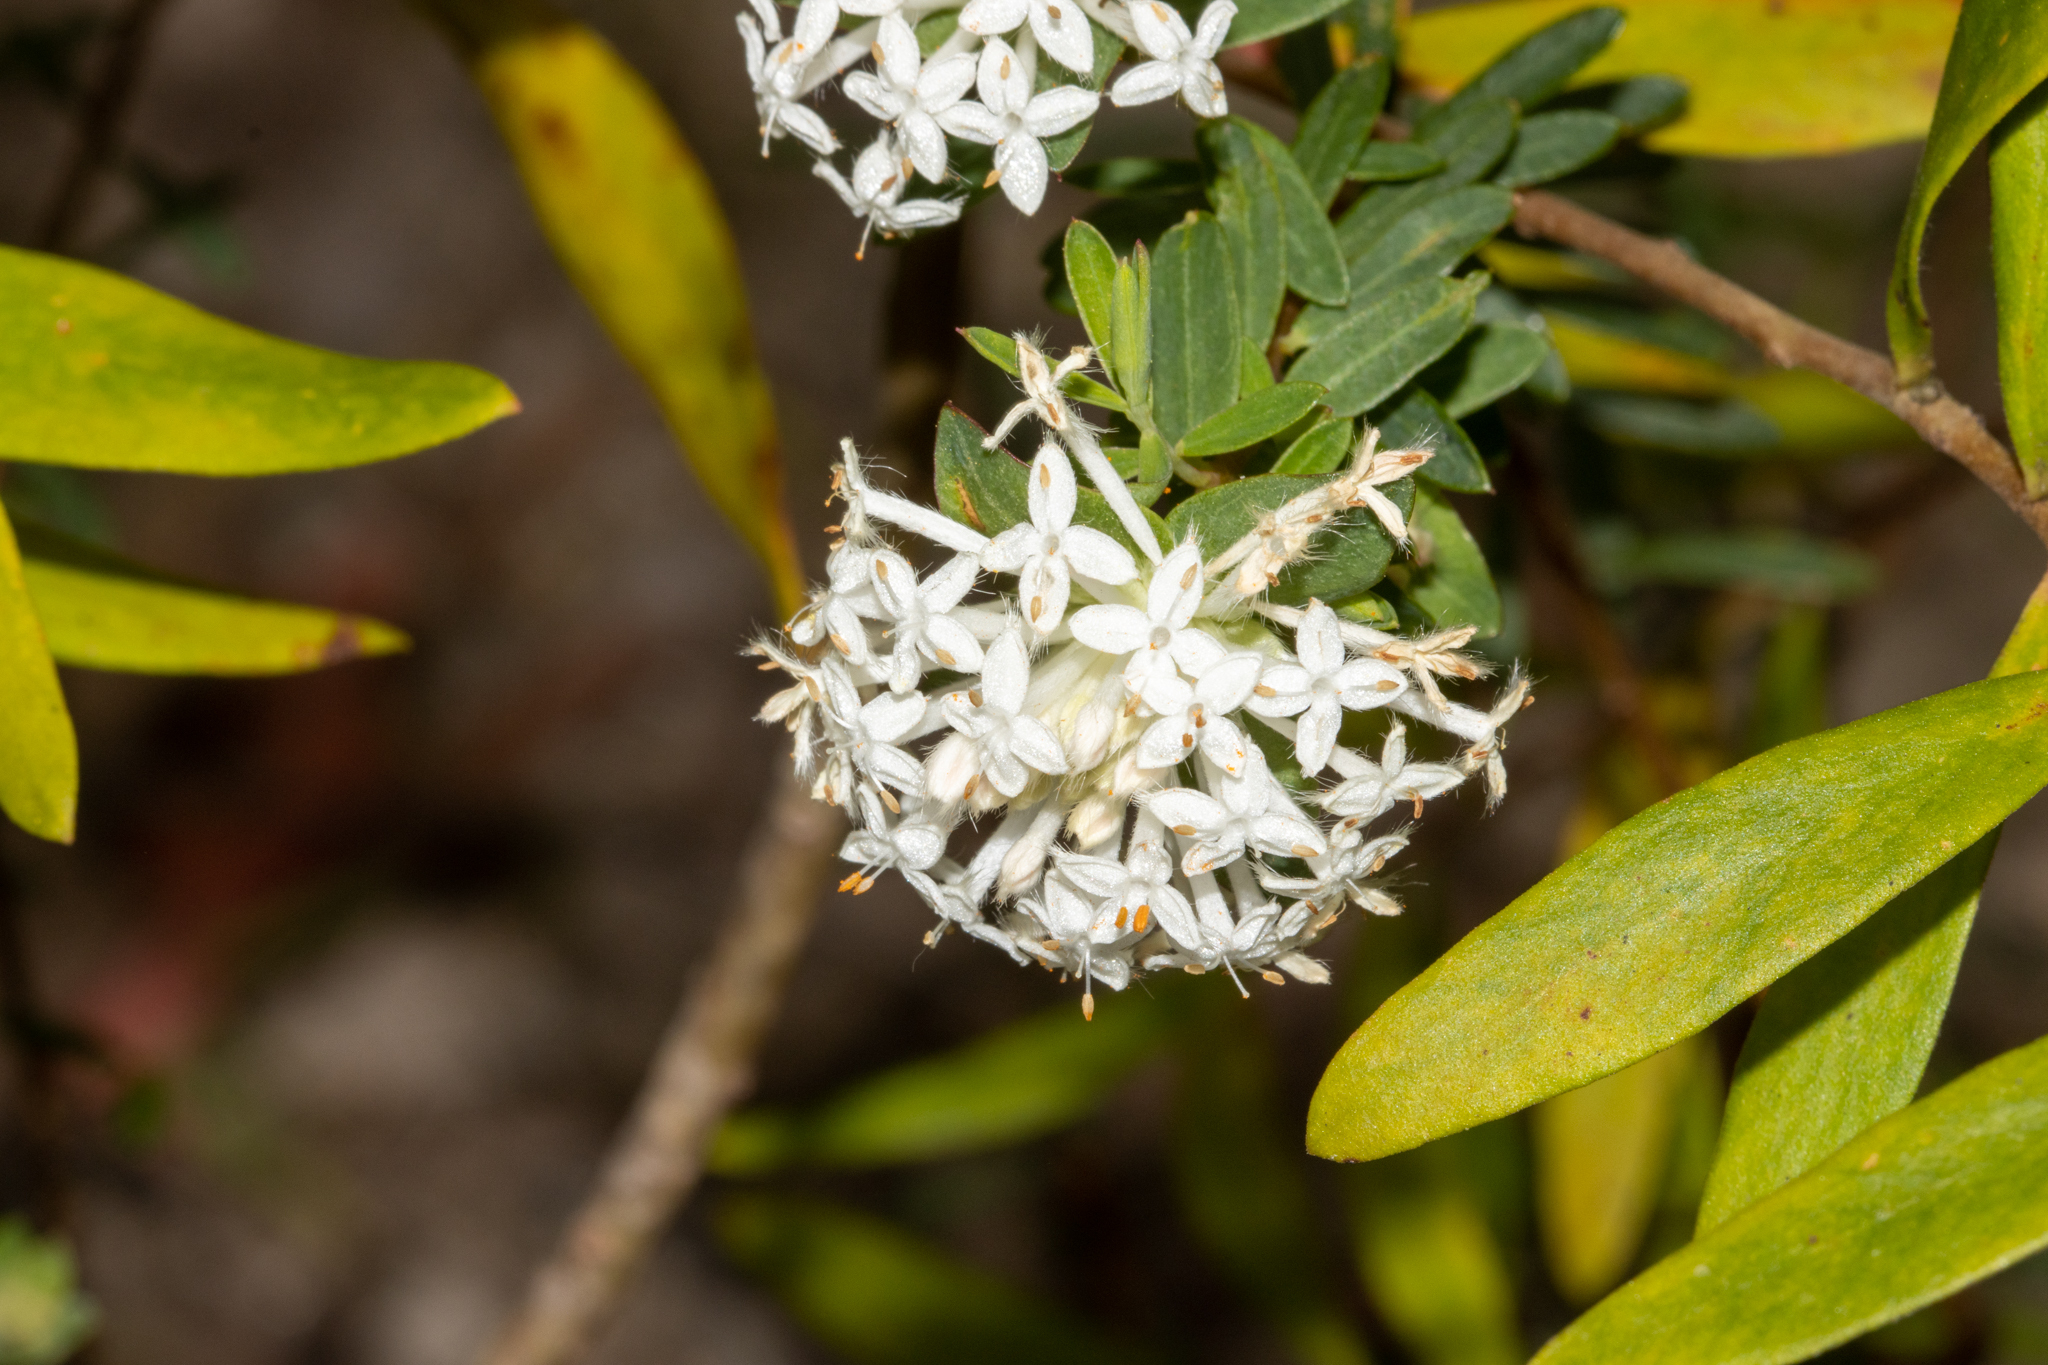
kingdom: Plantae
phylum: Tracheophyta
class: Magnoliopsida
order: Malvales
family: Thymelaeaceae
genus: Pimelea
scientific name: Pimelea linifolia
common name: Queen-of-the-bush
